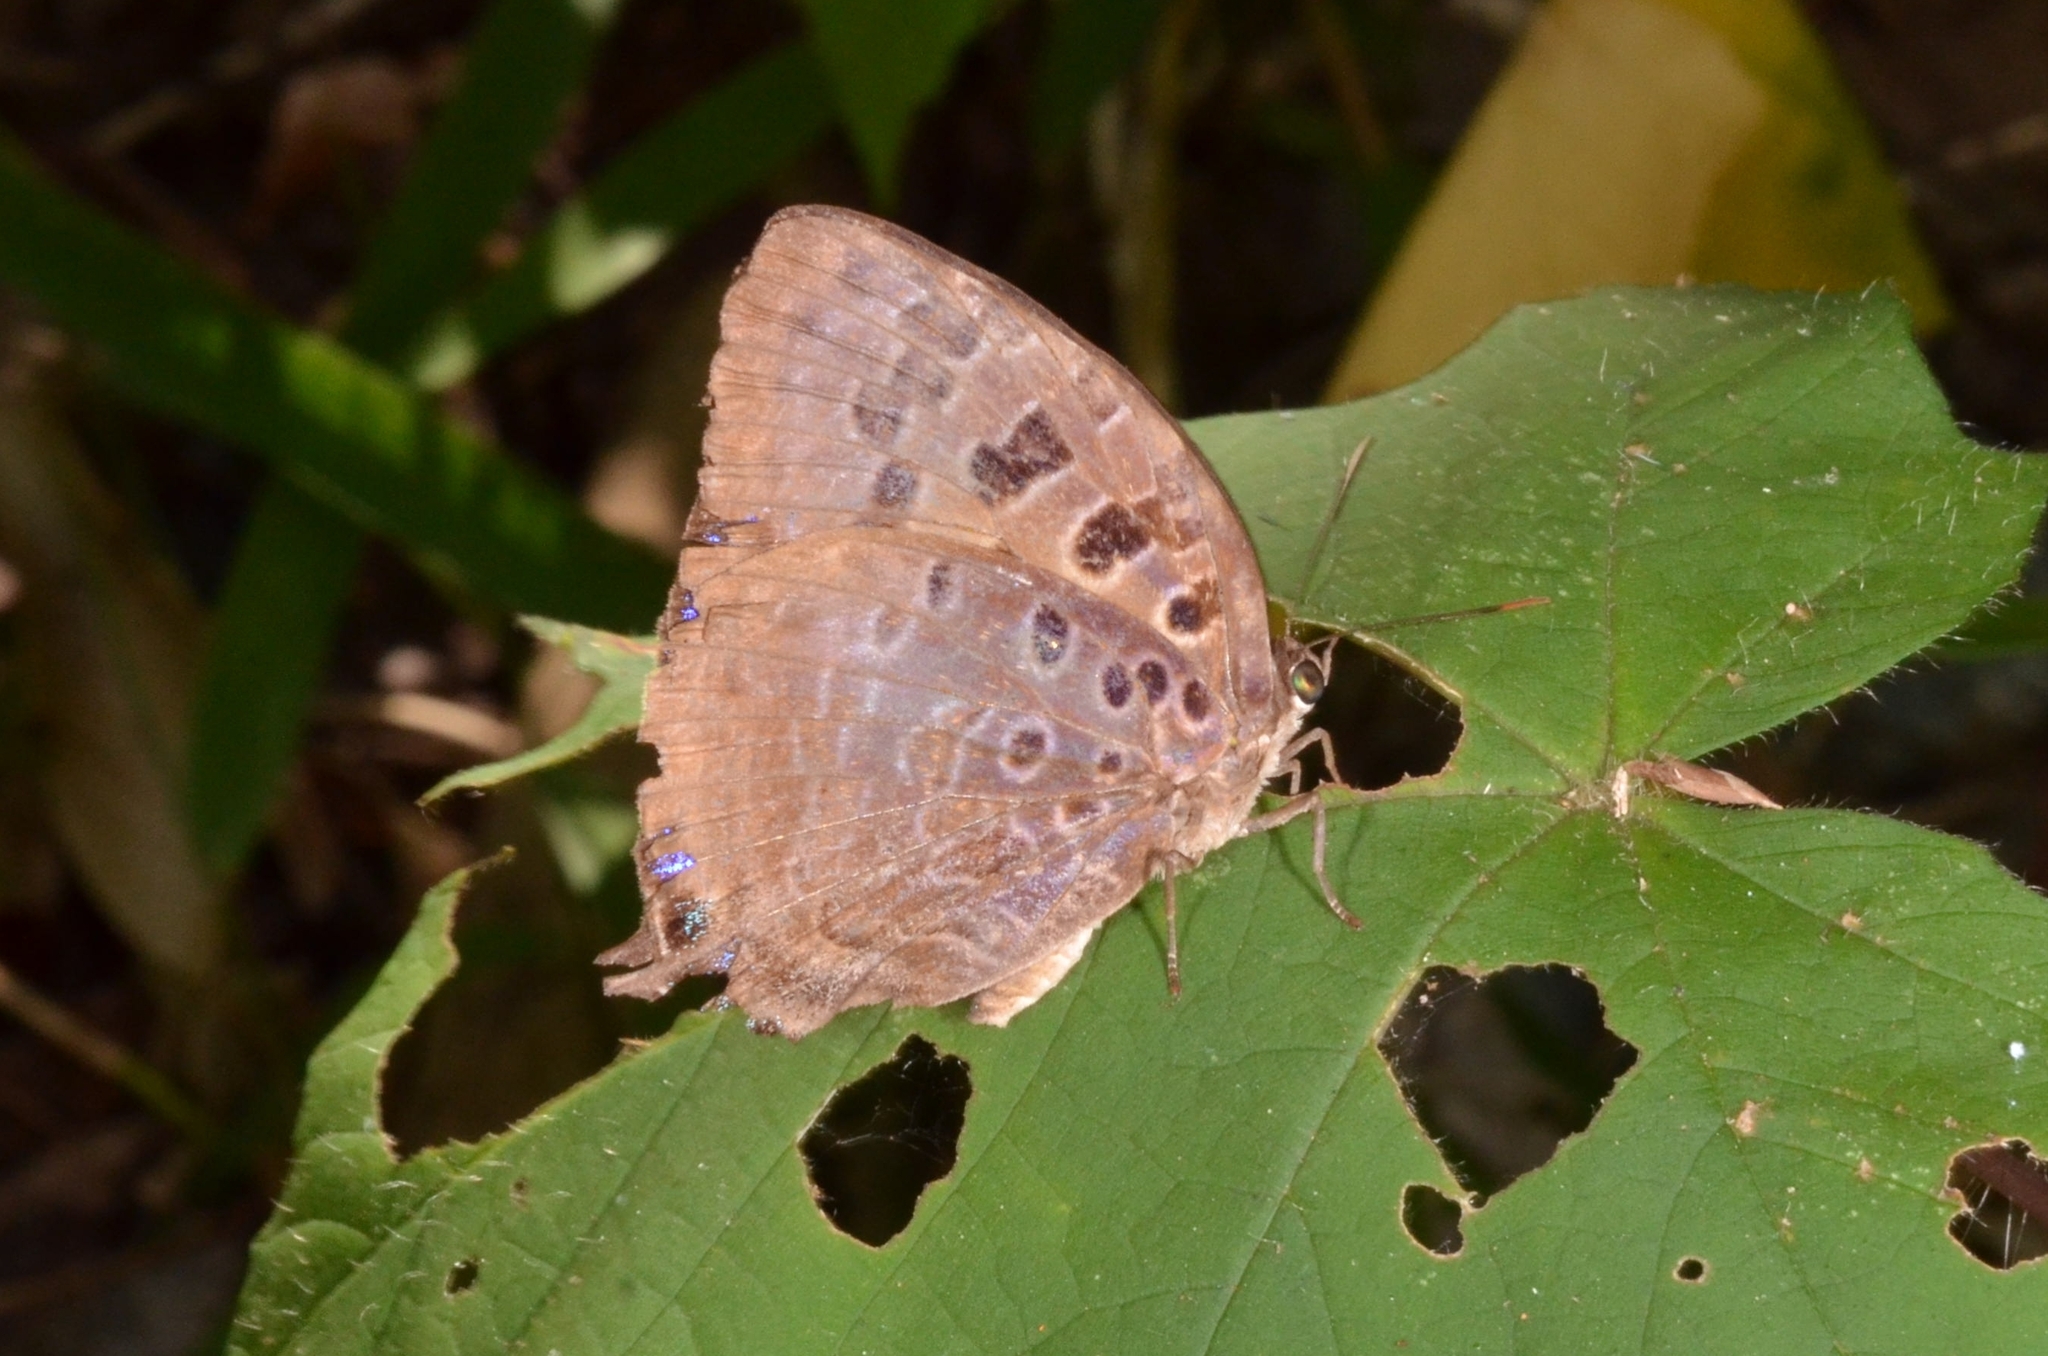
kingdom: Animalia
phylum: Arthropoda
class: Insecta
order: Lepidoptera
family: Lycaenidae
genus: Arhopala
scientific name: Arhopala anthelus
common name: Bushblue
